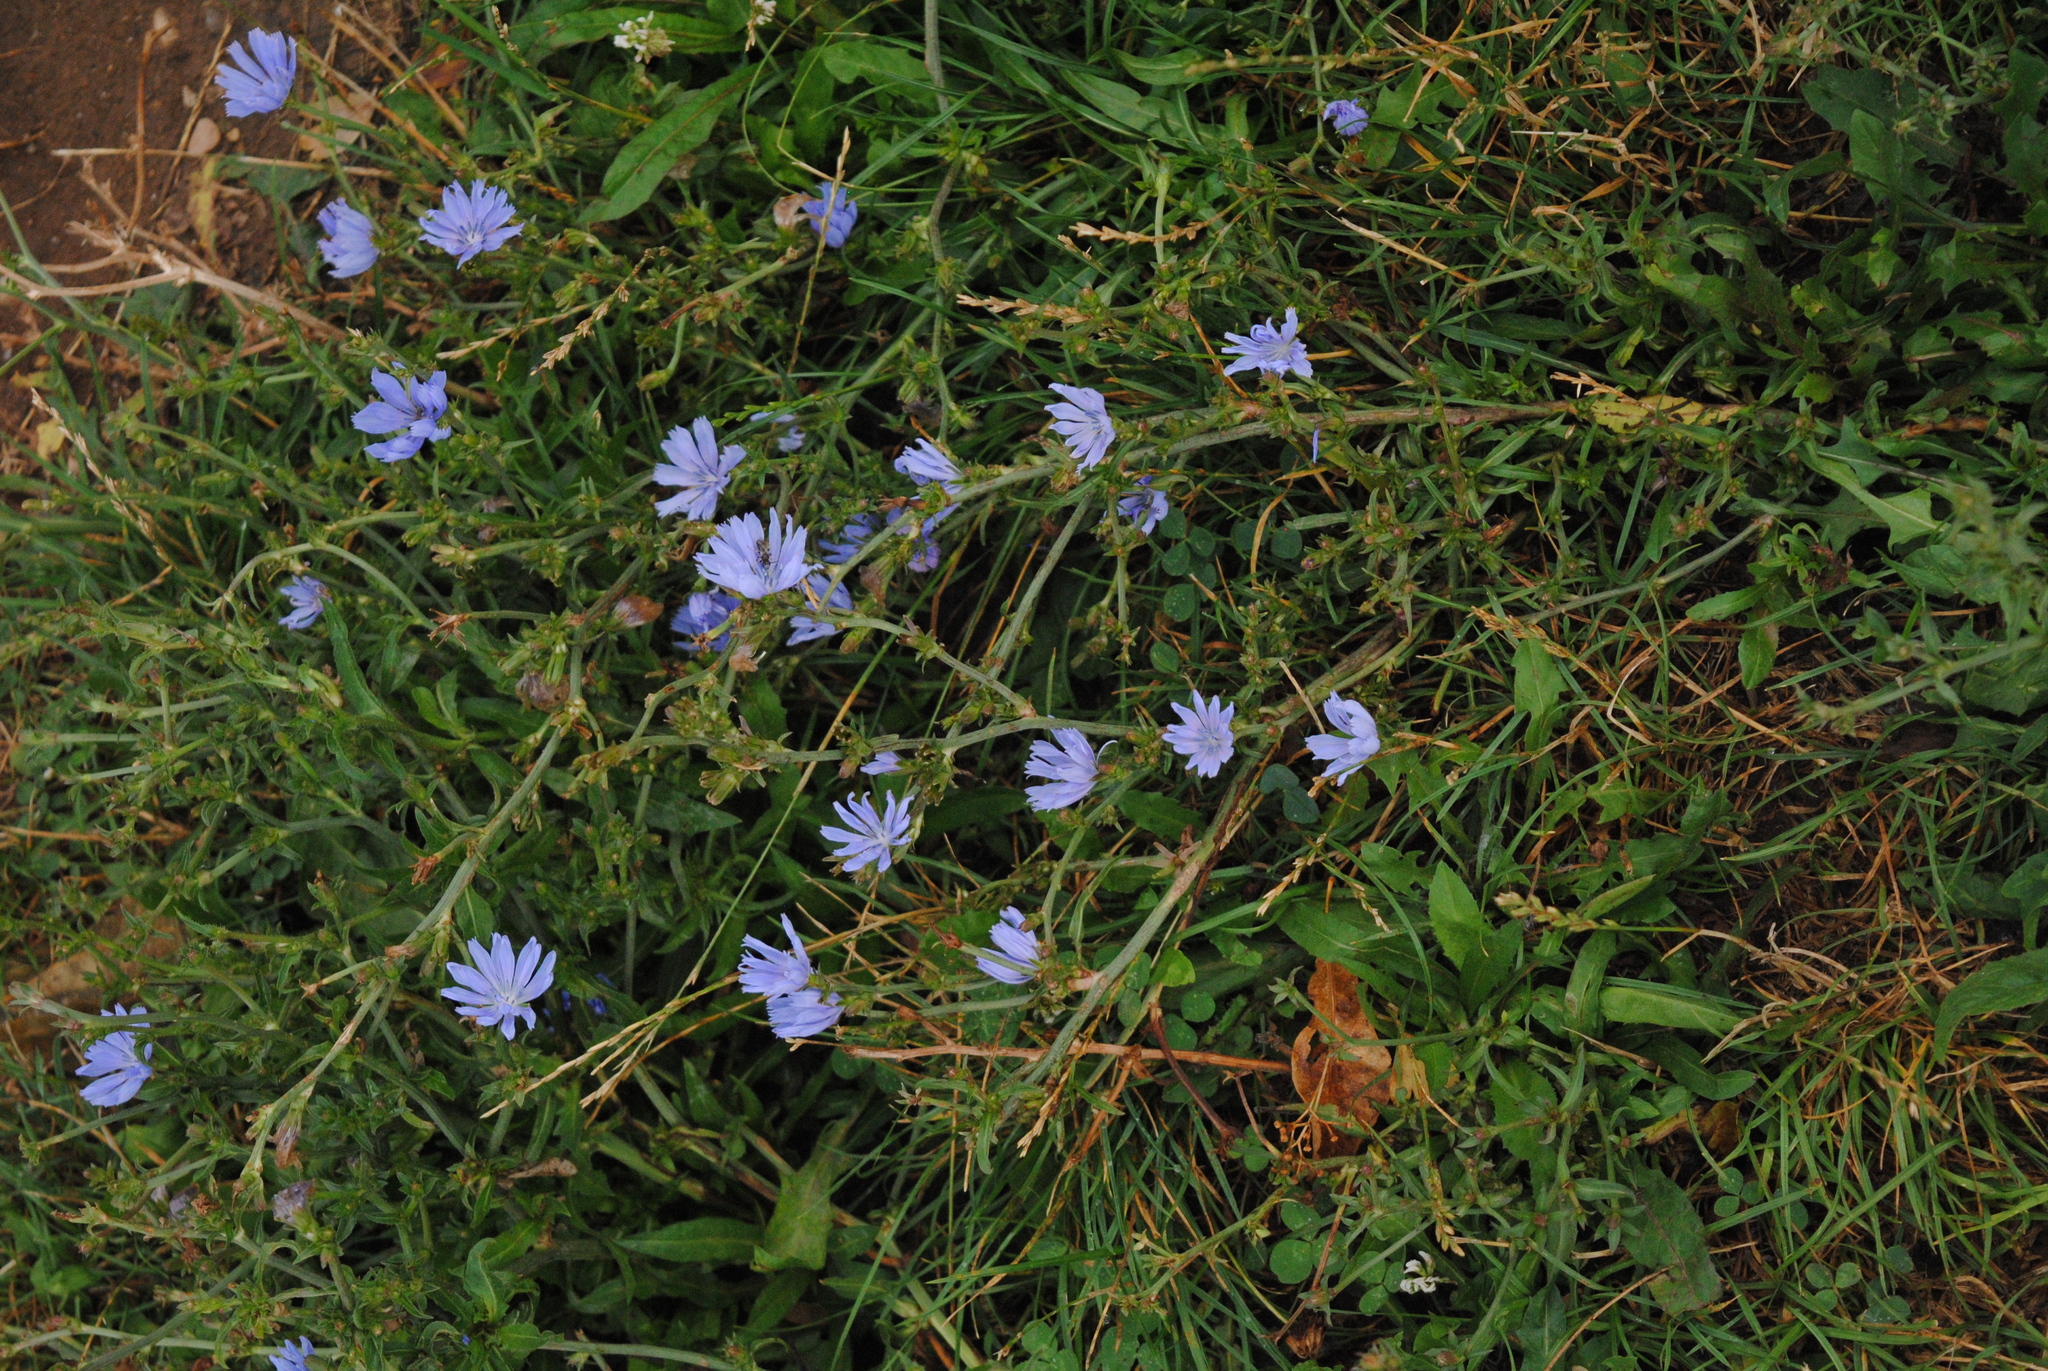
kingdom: Plantae
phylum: Tracheophyta
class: Magnoliopsida
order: Asterales
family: Asteraceae
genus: Cichorium
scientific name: Cichorium intybus
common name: Chicory
